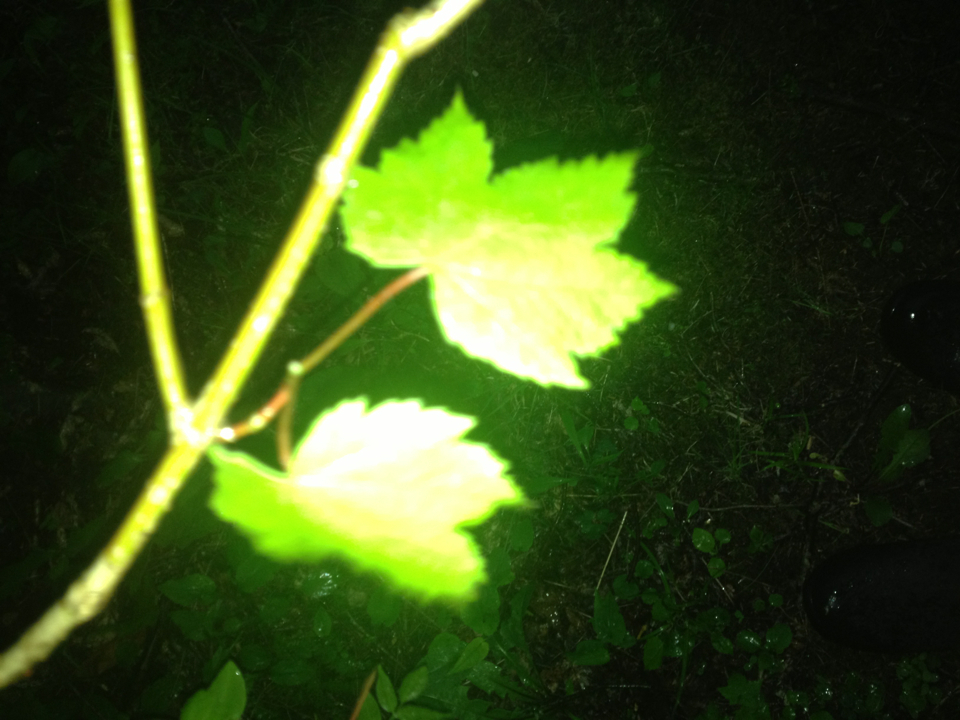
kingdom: Plantae
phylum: Tracheophyta
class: Magnoliopsida
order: Sapindales
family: Sapindaceae
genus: Acer
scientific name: Acer spicatum
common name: Mountain maple
